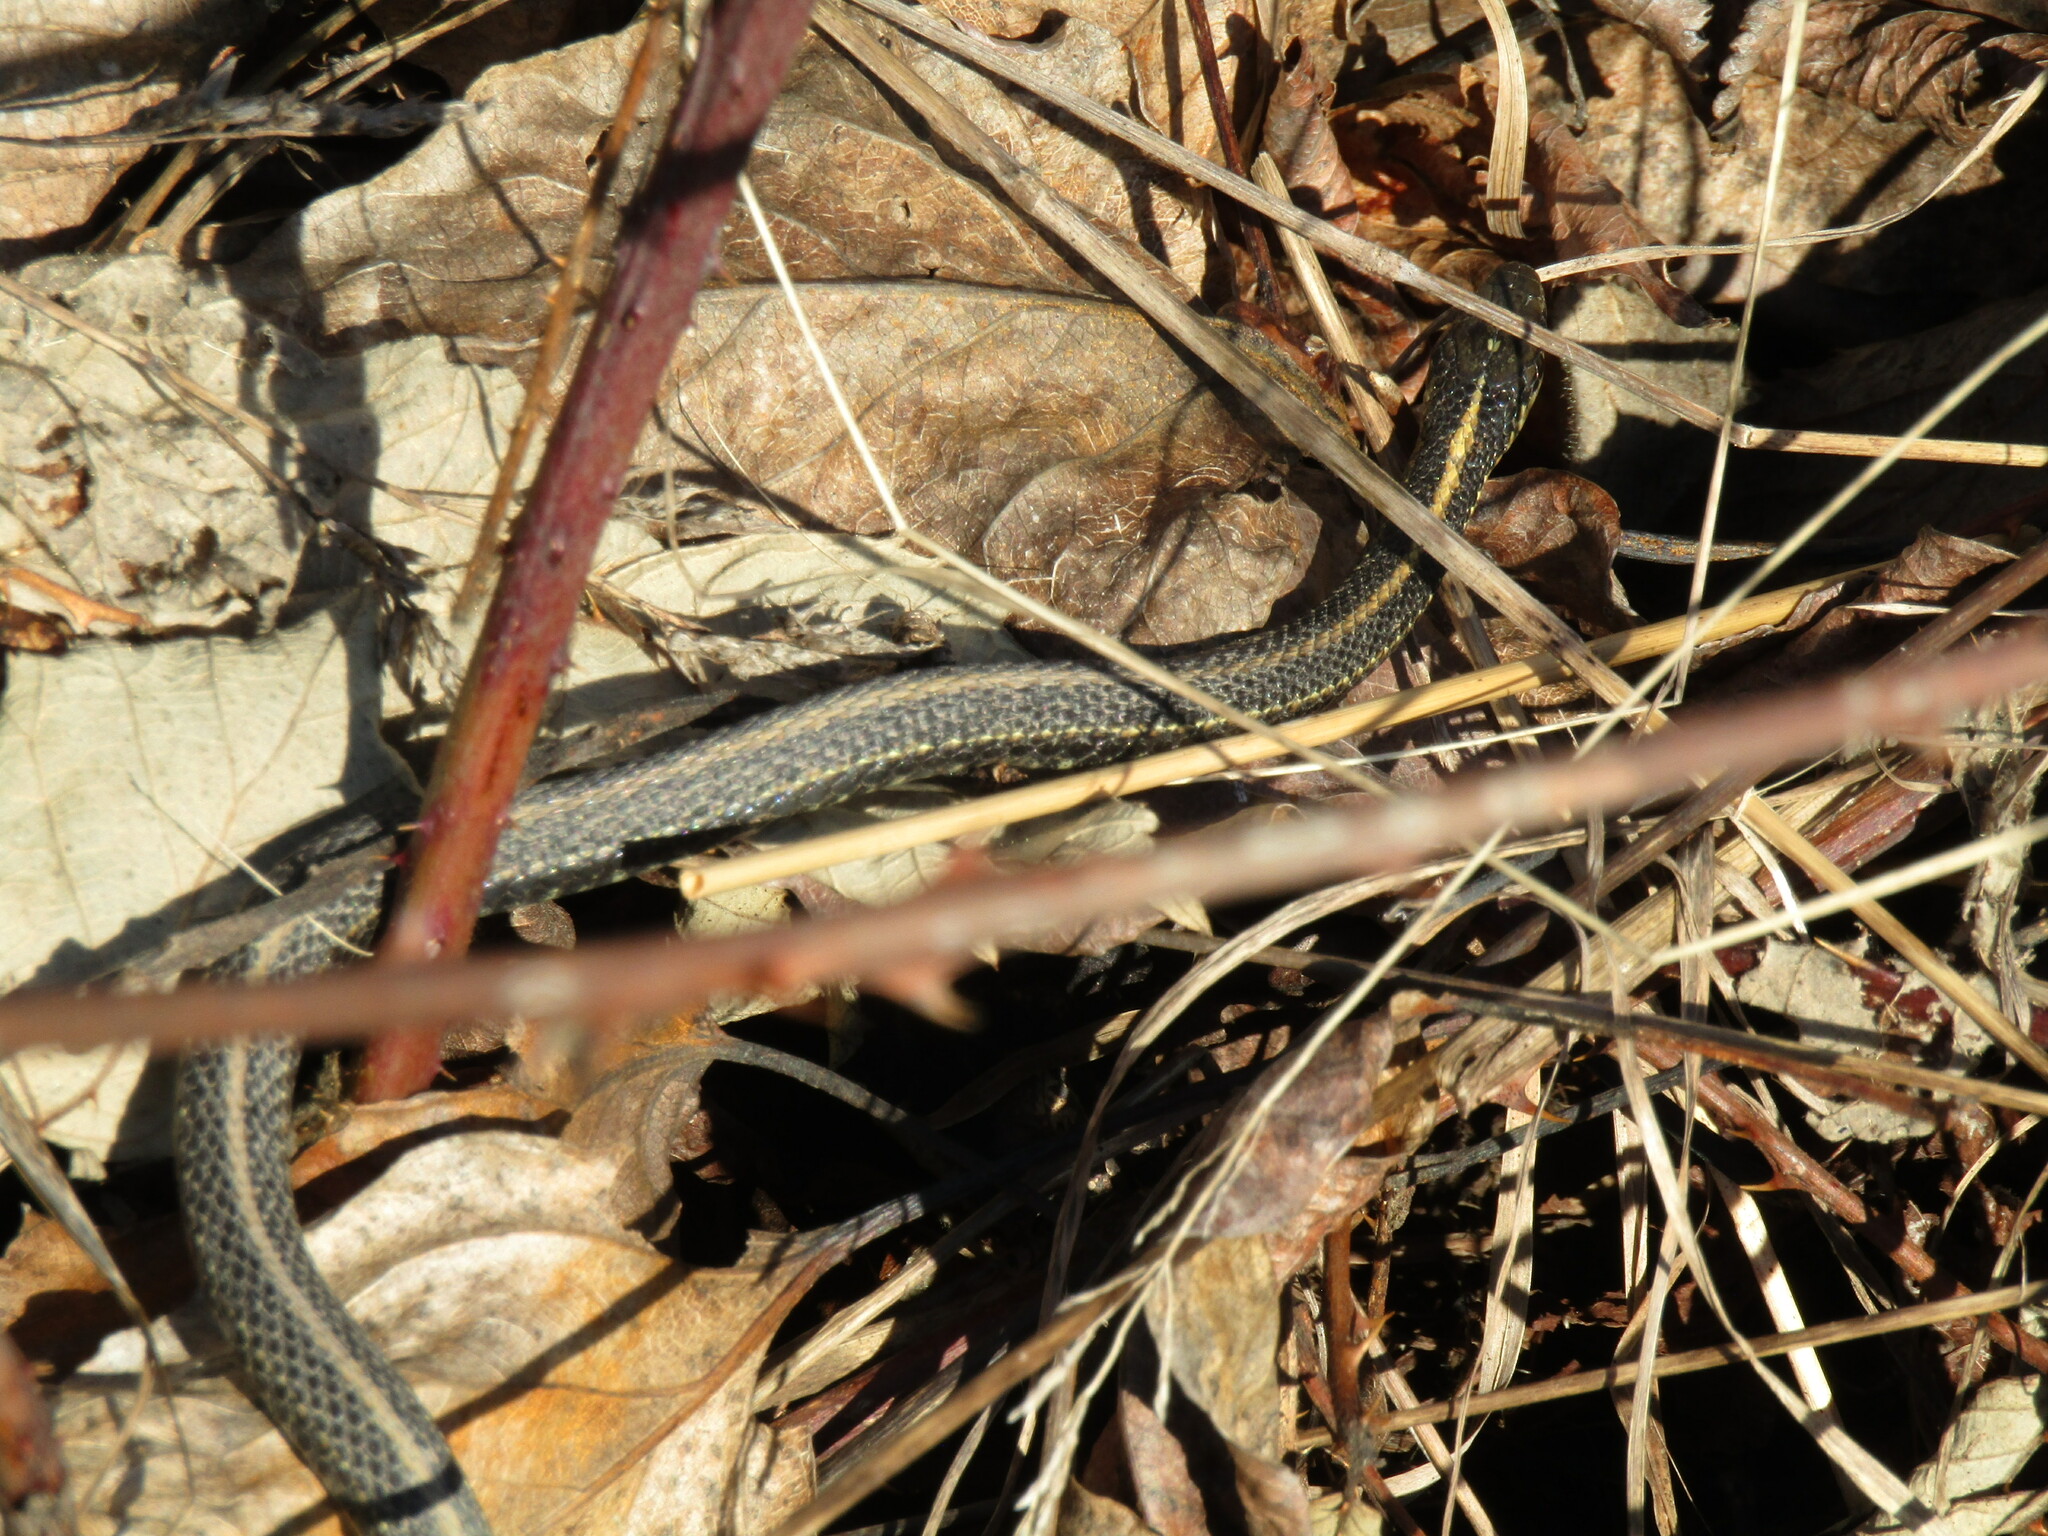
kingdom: Animalia
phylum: Chordata
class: Squamata
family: Colubridae
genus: Thamnophis
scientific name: Thamnophis ordinoides
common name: Northwestern garter snake
